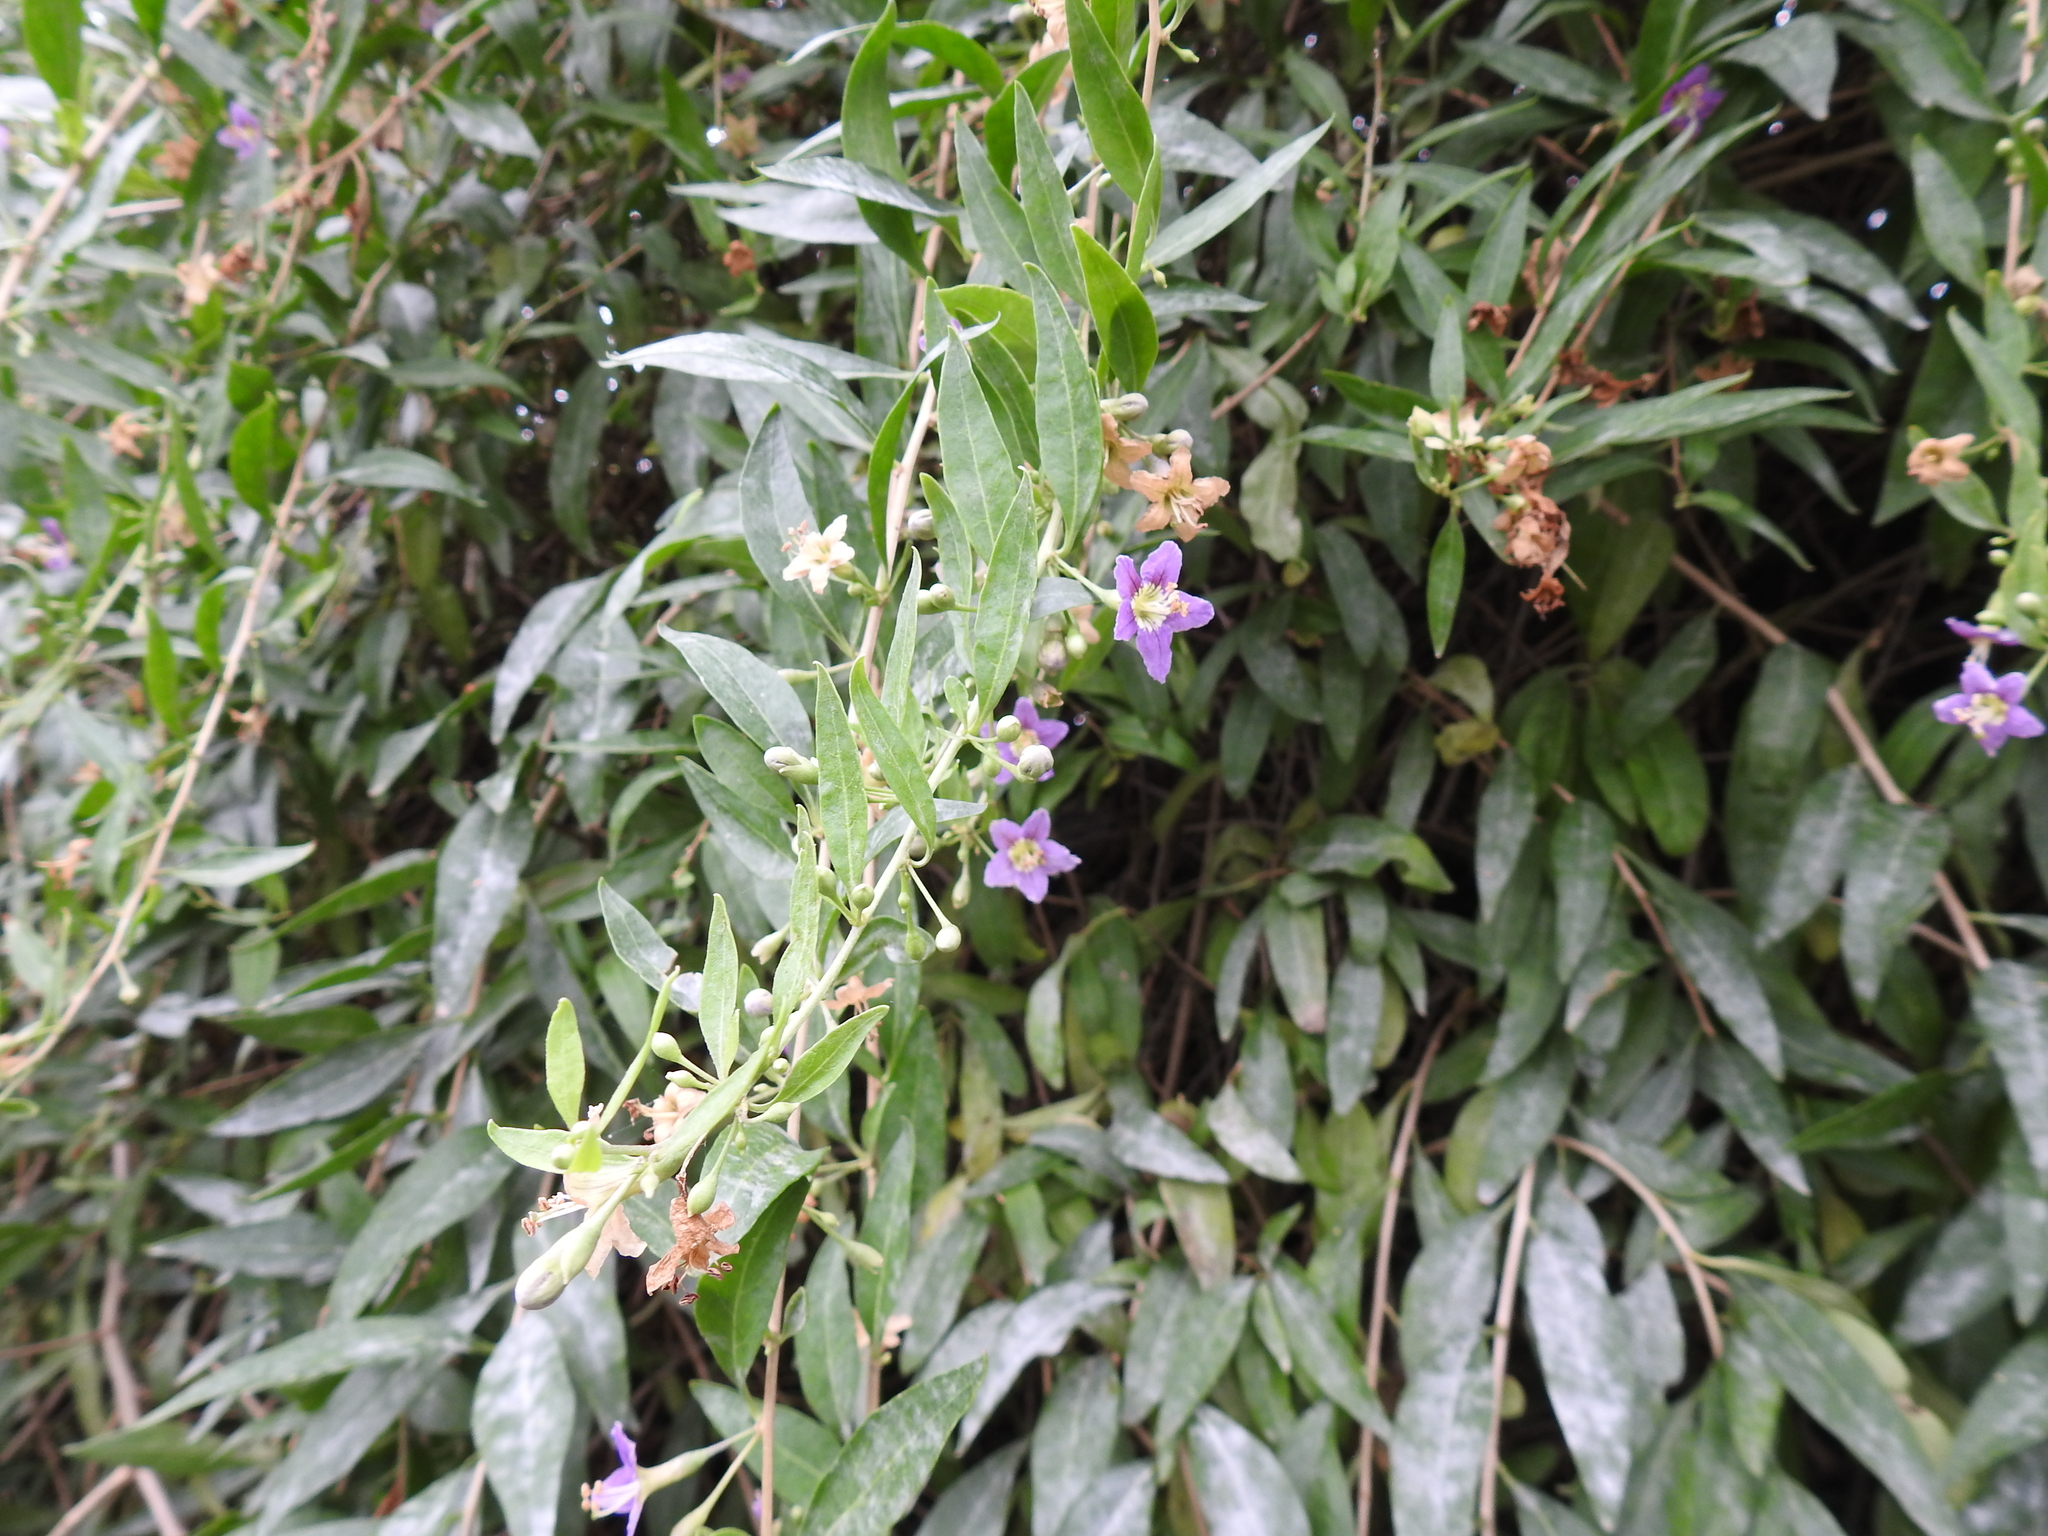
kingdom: Plantae
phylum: Tracheophyta
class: Magnoliopsida
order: Solanales
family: Solanaceae
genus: Lycium
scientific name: Lycium barbarum
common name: Duke of argyll's teaplant
